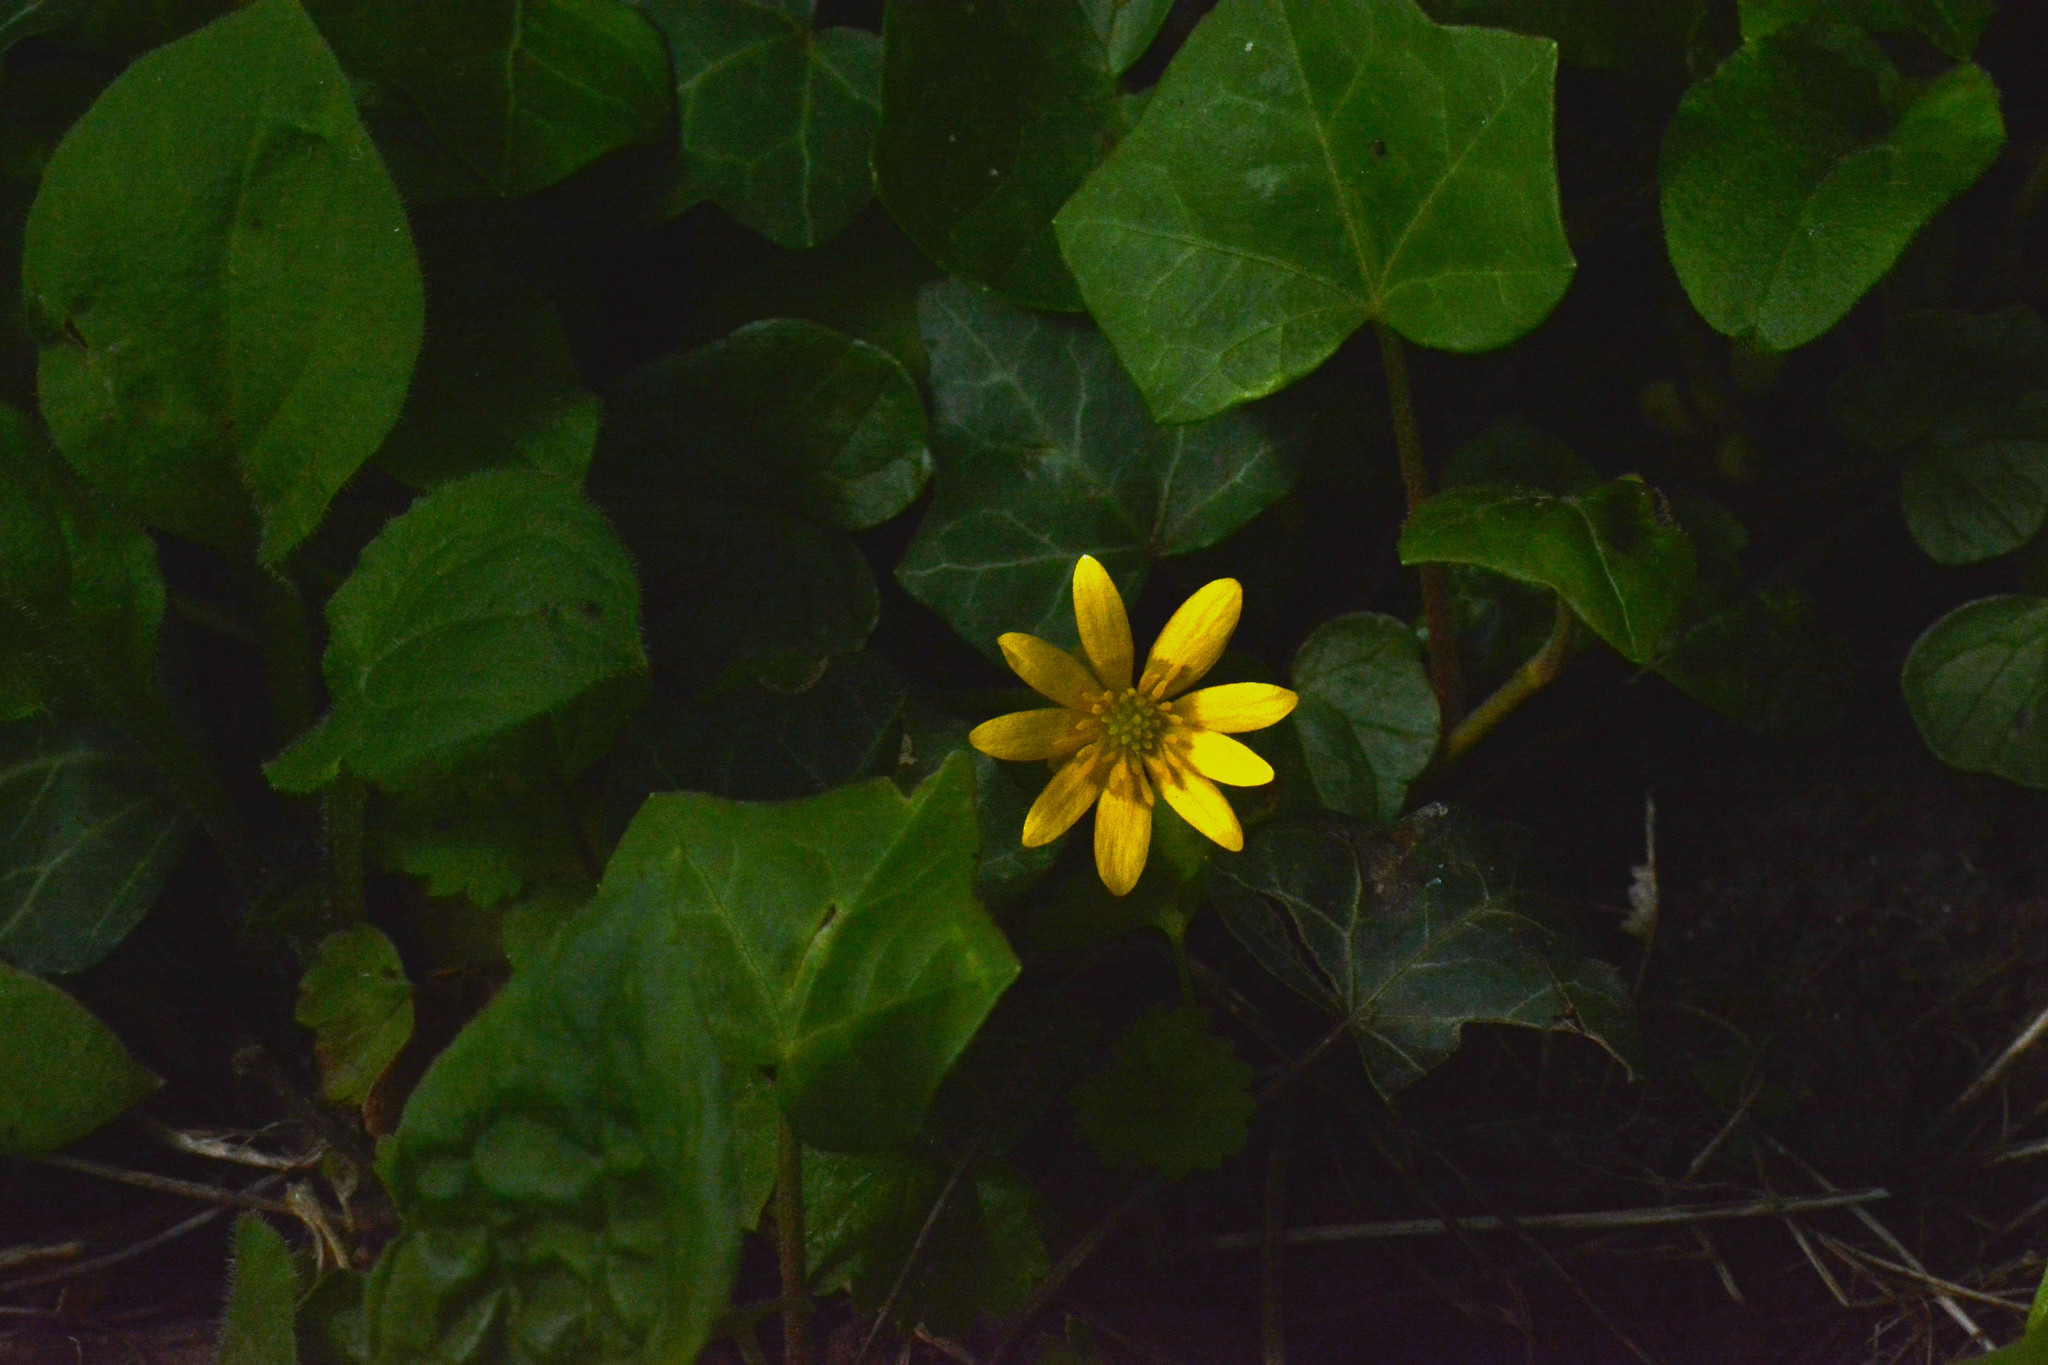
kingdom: Plantae
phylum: Tracheophyta
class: Magnoliopsida
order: Ranunculales
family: Ranunculaceae
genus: Ficaria
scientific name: Ficaria verna
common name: Lesser celandine
